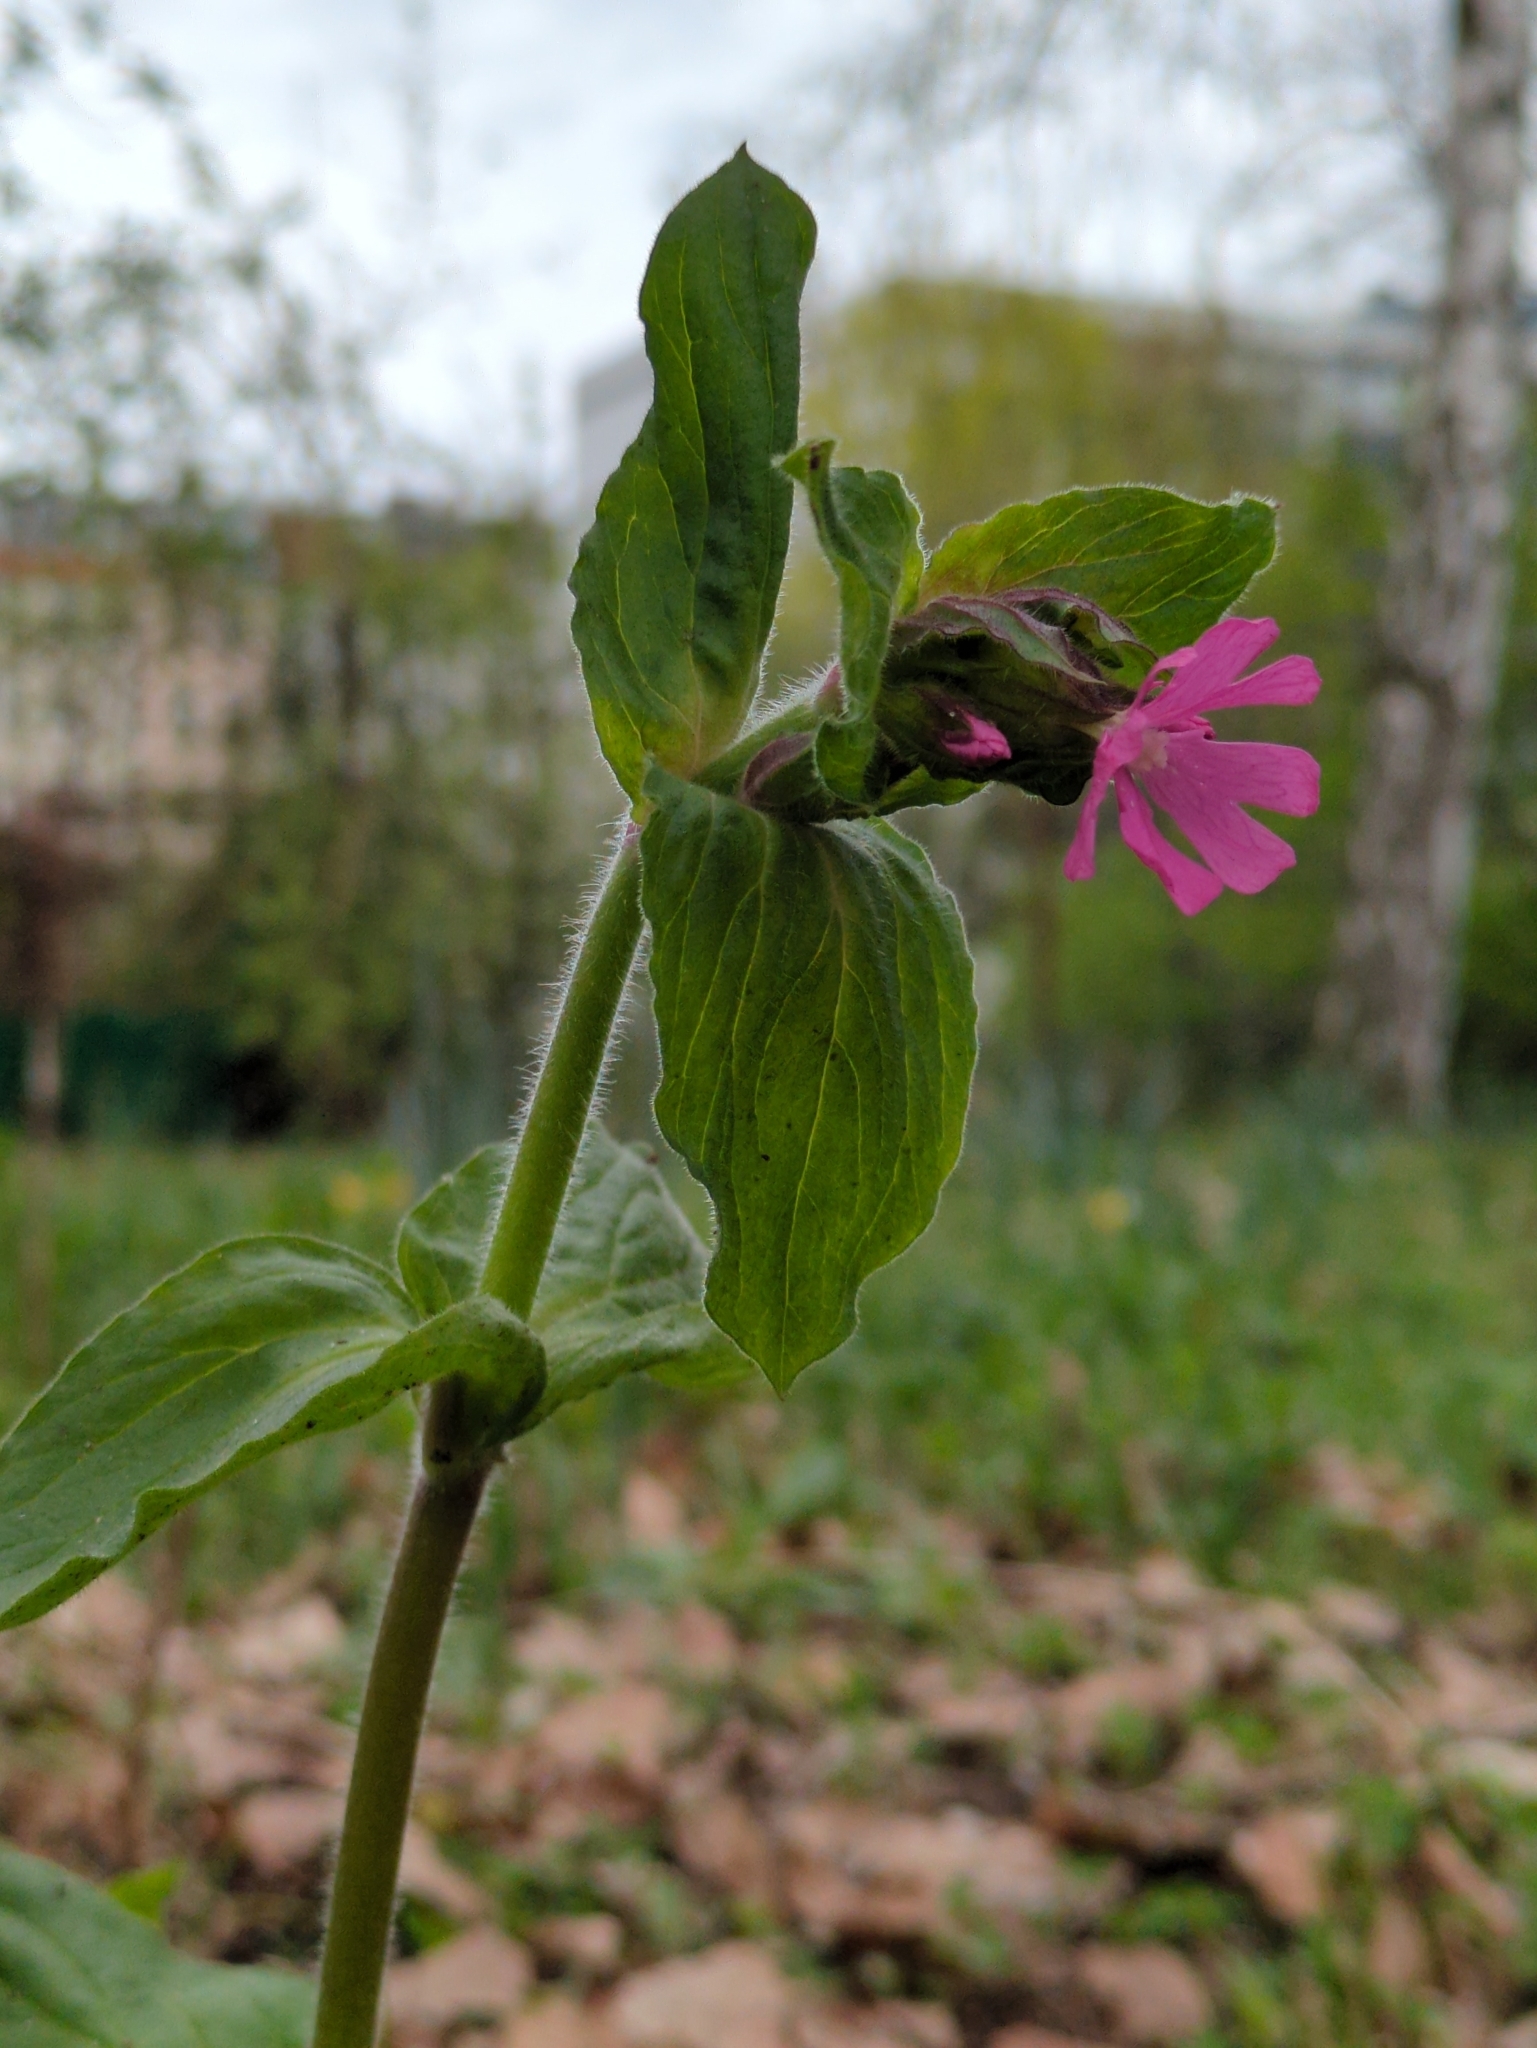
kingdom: Plantae
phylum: Tracheophyta
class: Magnoliopsida
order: Caryophyllales
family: Caryophyllaceae
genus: Silene
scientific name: Silene dioica
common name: Red campion
